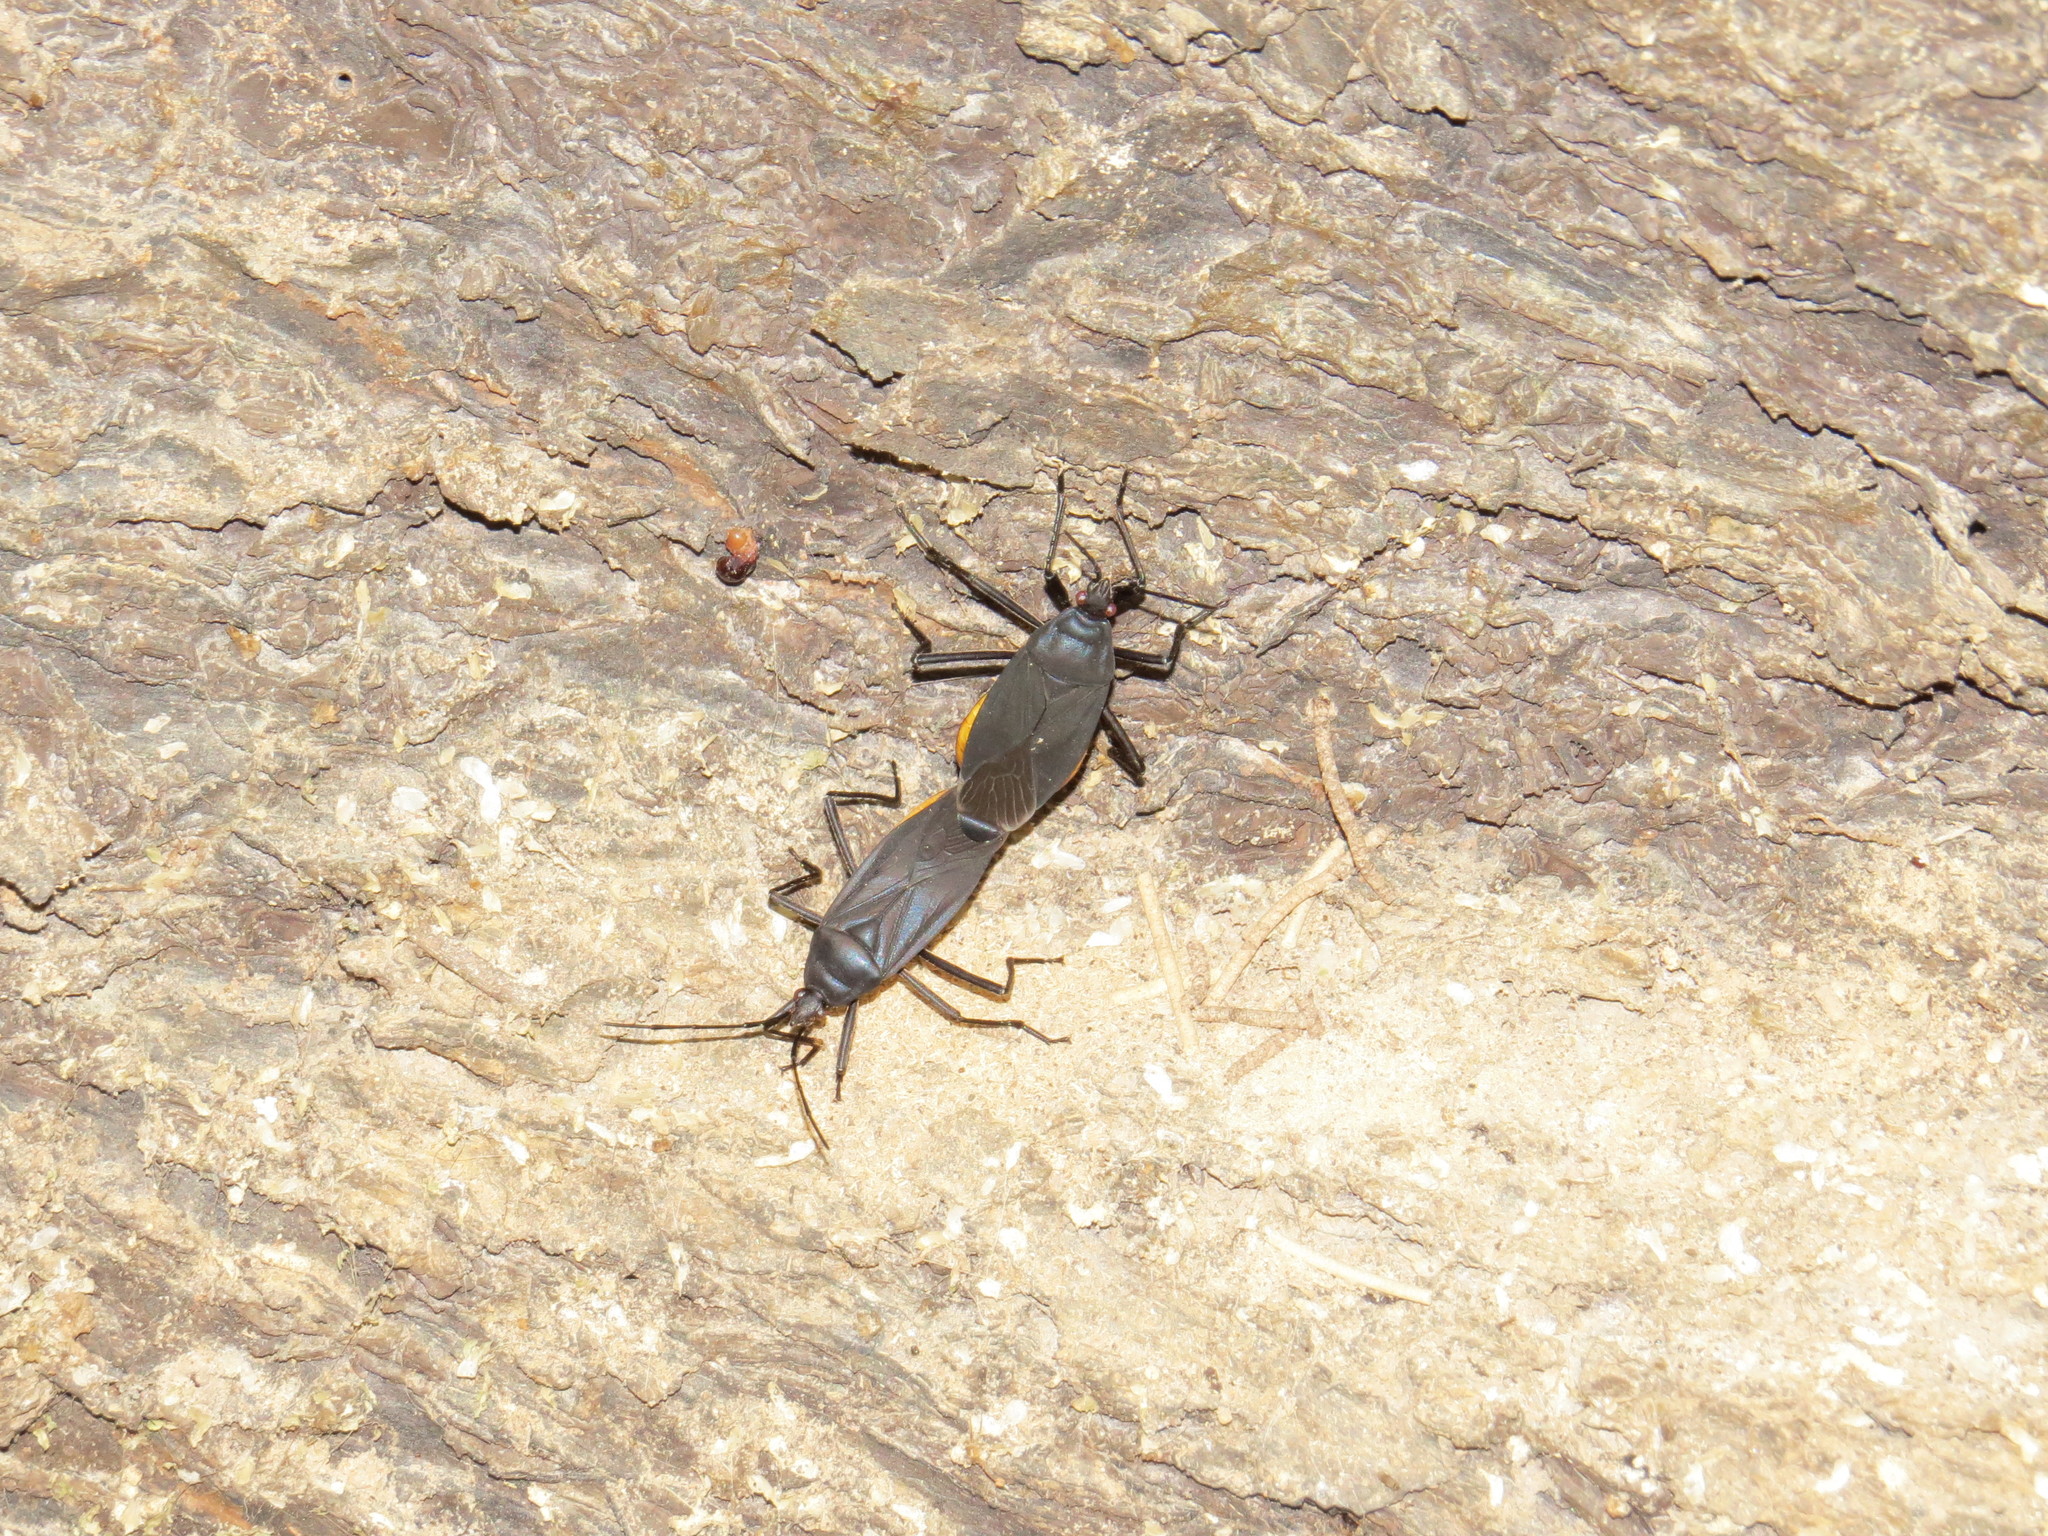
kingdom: Animalia
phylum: Arthropoda
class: Insecta
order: Hemiptera
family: Pyrrhocoridae
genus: Melamphaus
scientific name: Melamphaus faber
